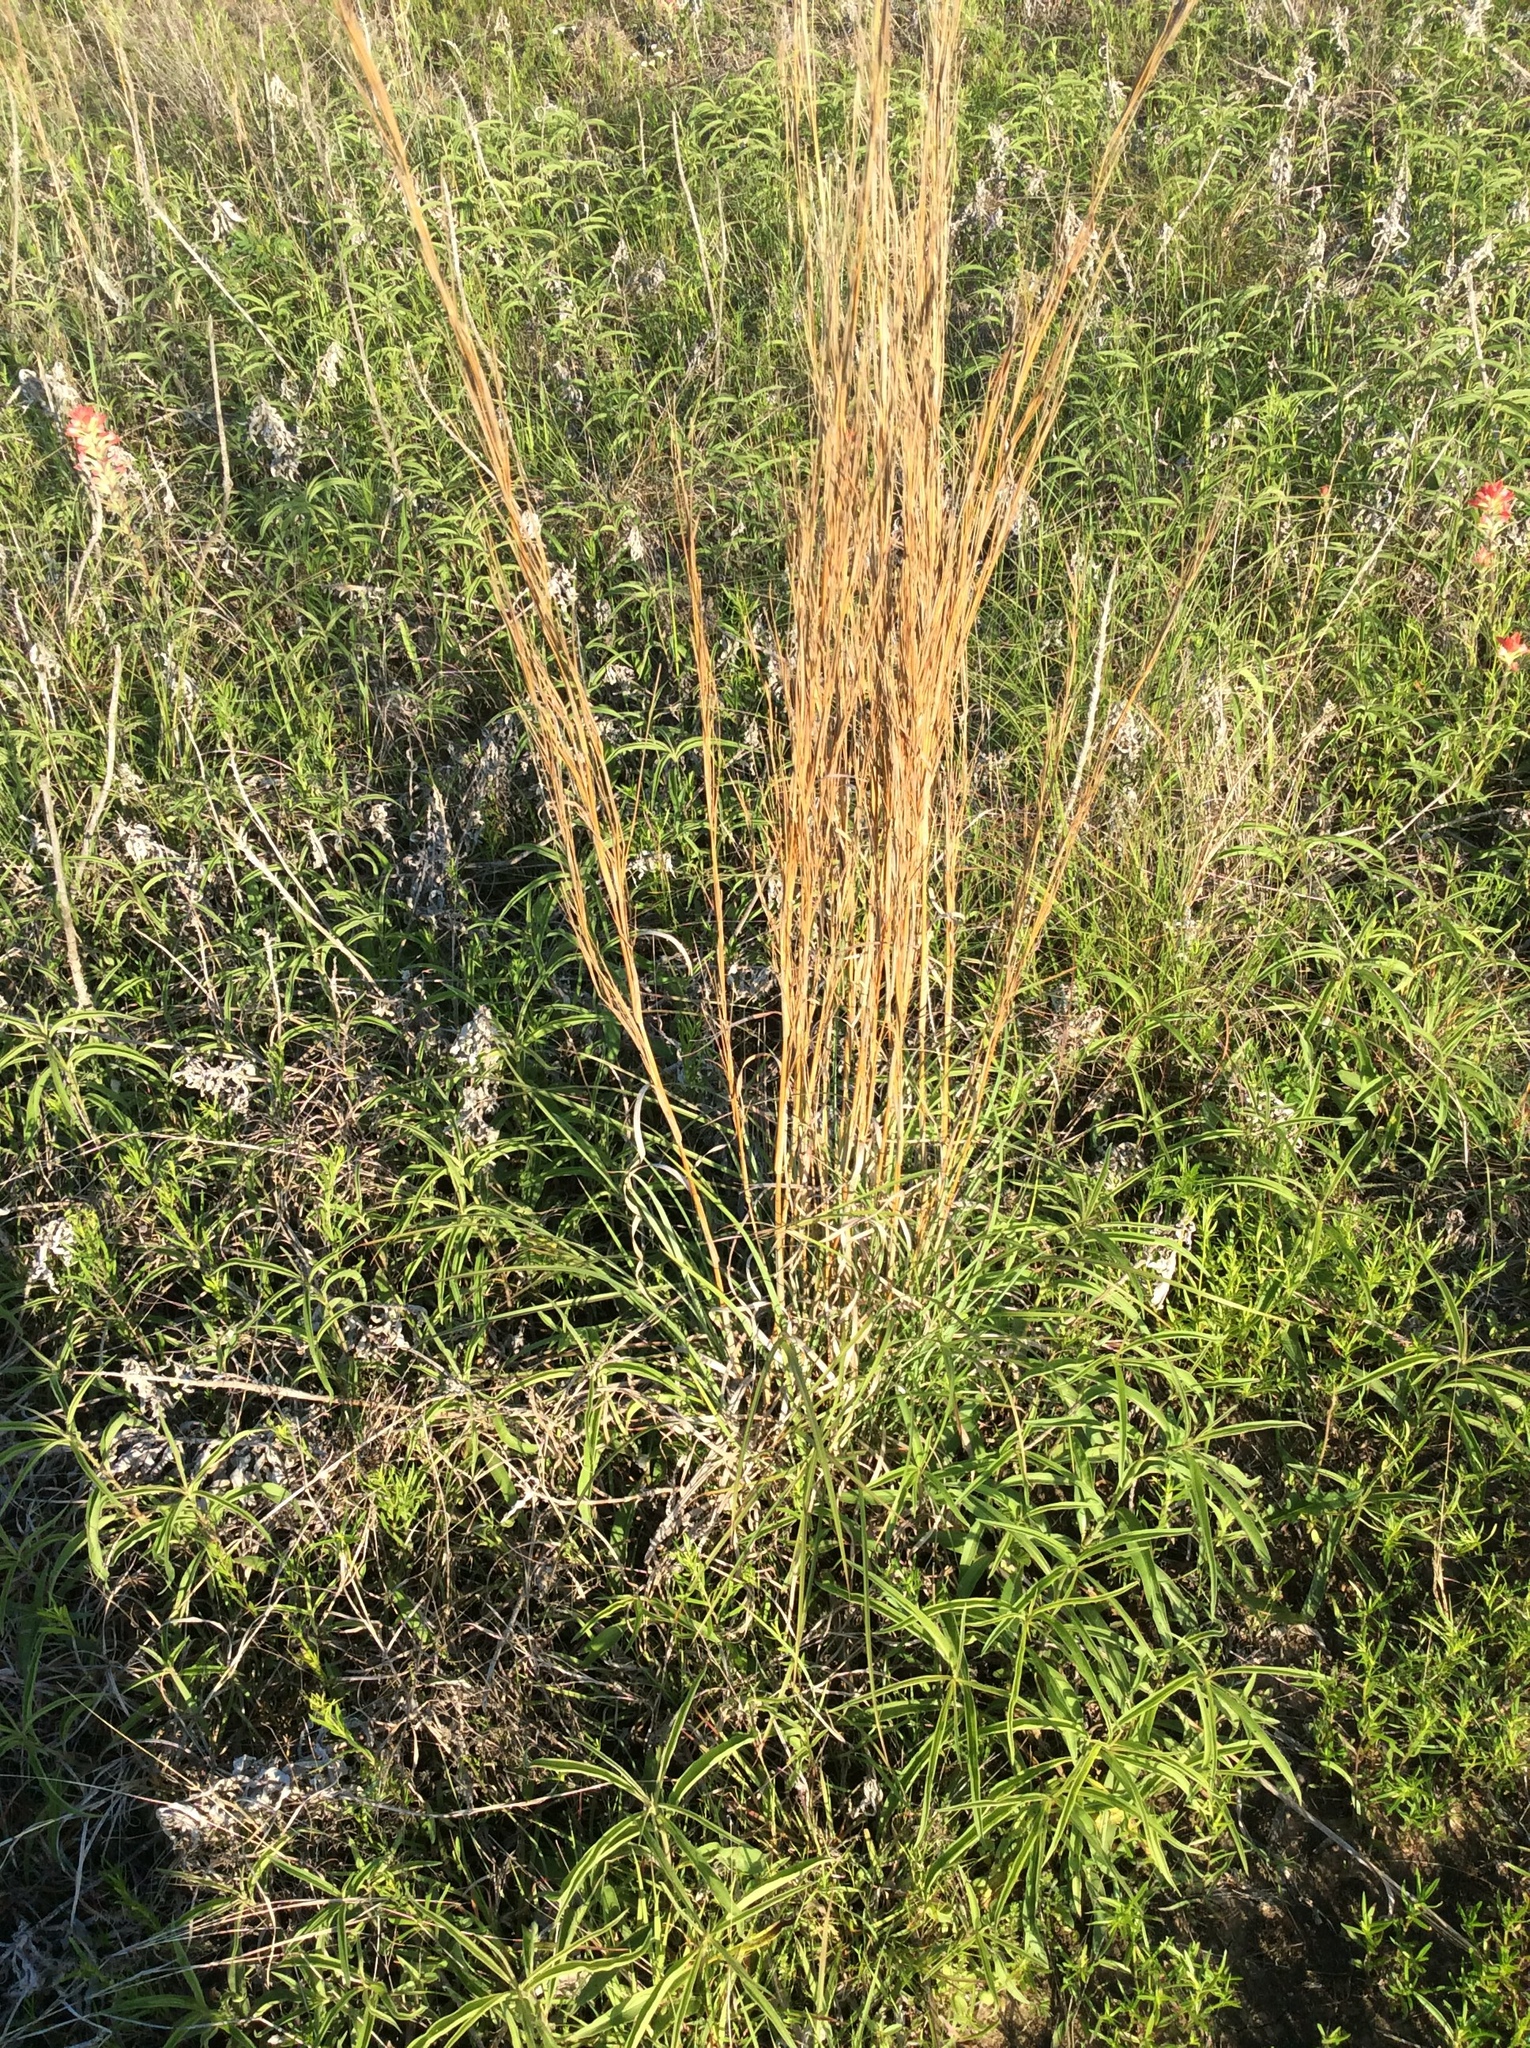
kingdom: Plantae
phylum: Tracheophyta
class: Liliopsida
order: Poales
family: Poaceae
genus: Schizachyrium
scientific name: Schizachyrium scoparium
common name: Little bluestem
